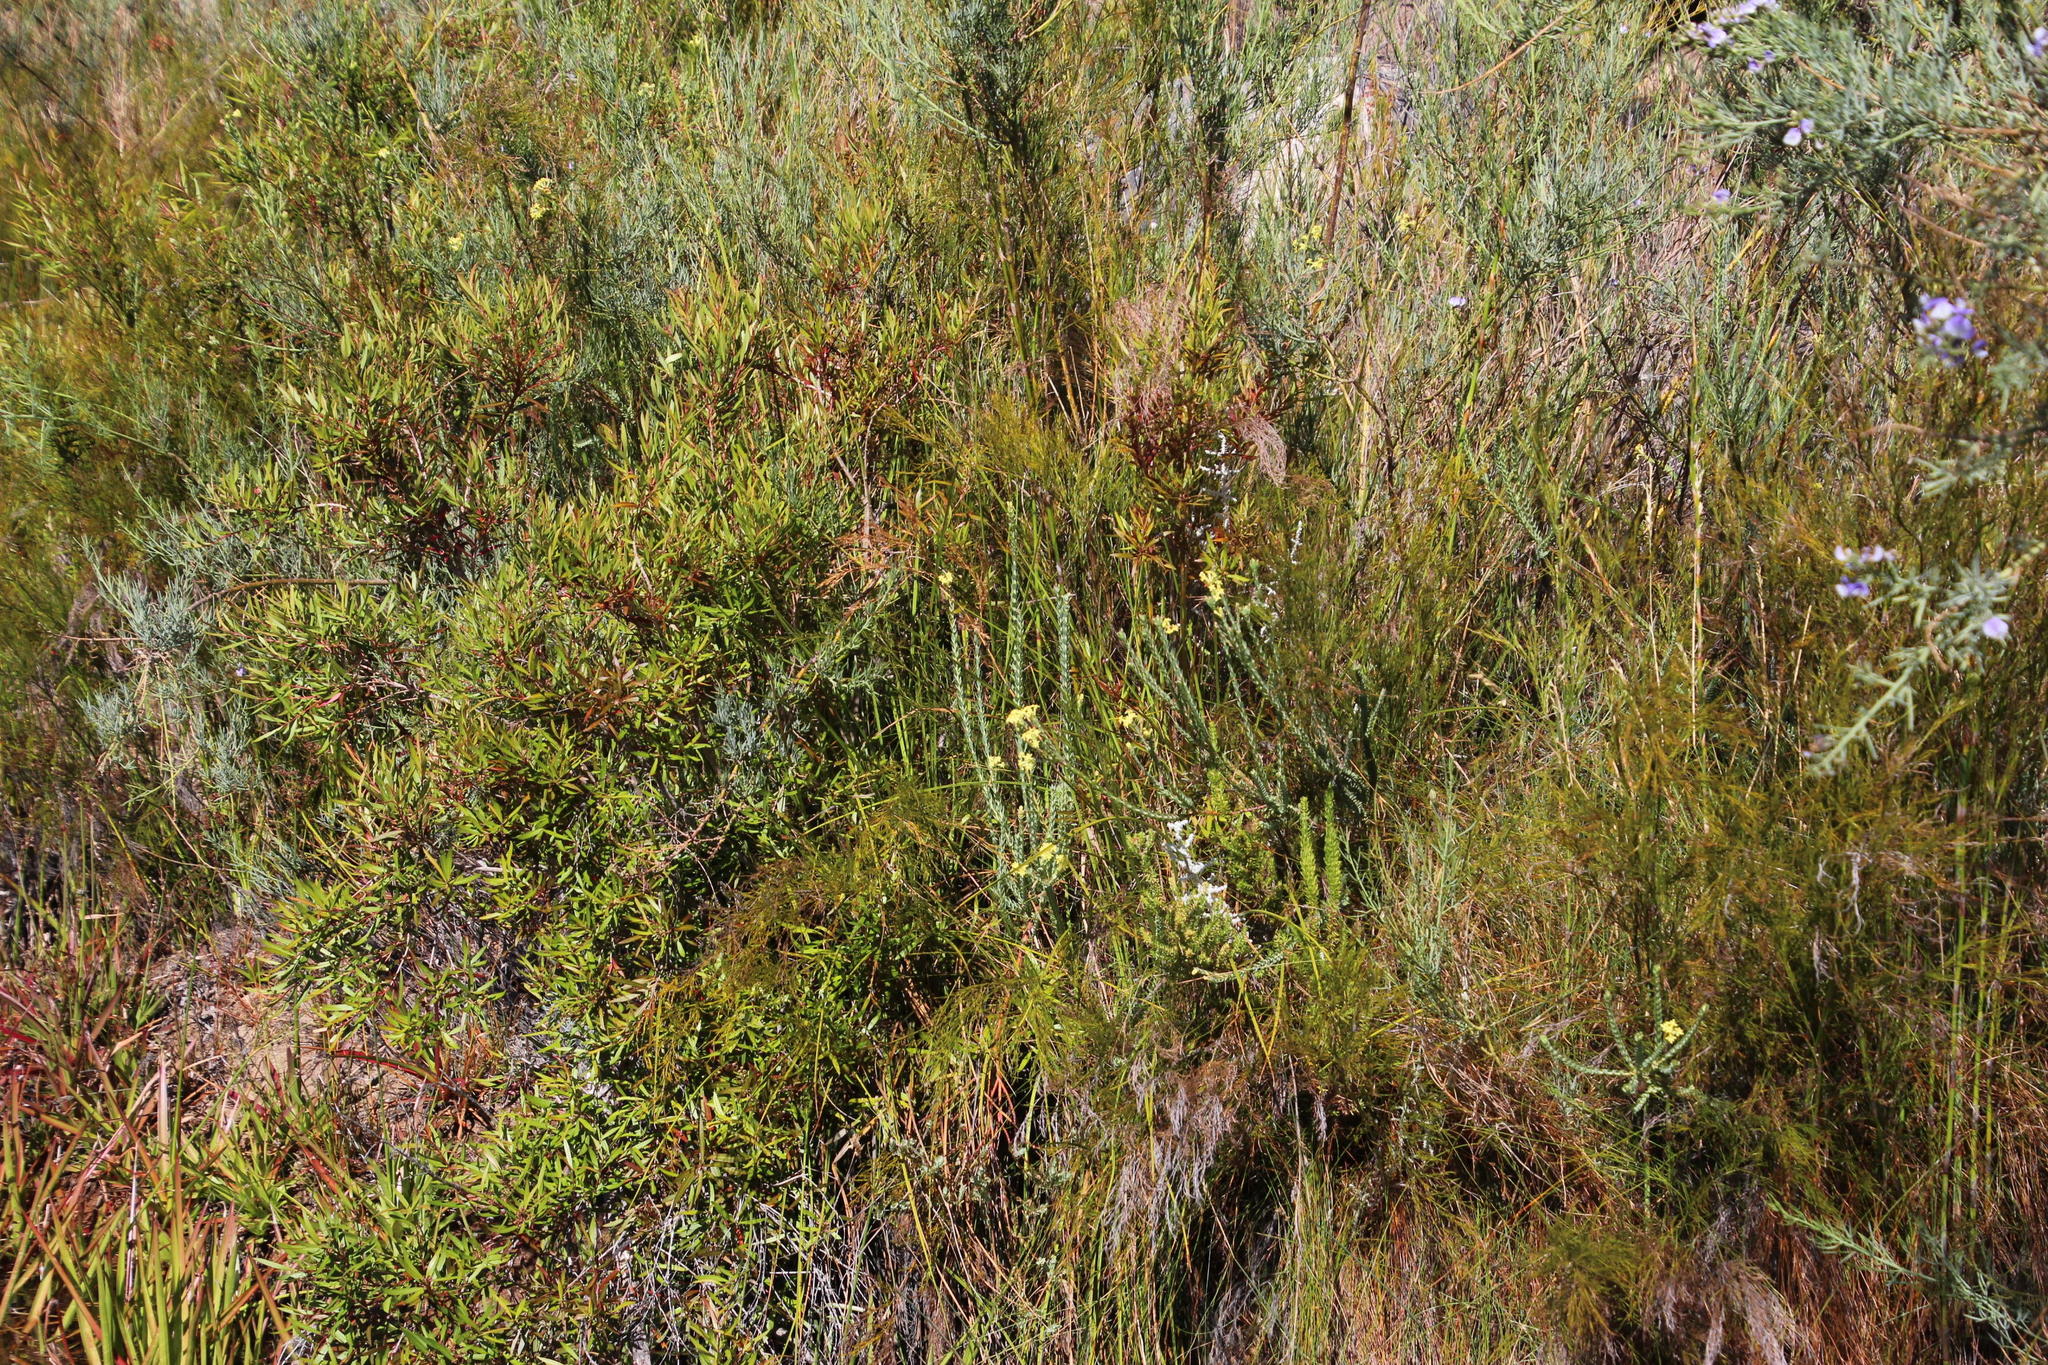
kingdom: Plantae
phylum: Tracheophyta
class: Magnoliopsida
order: Malvales
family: Thymelaeaceae
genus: Gnidia
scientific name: Gnidia oppositifolia
